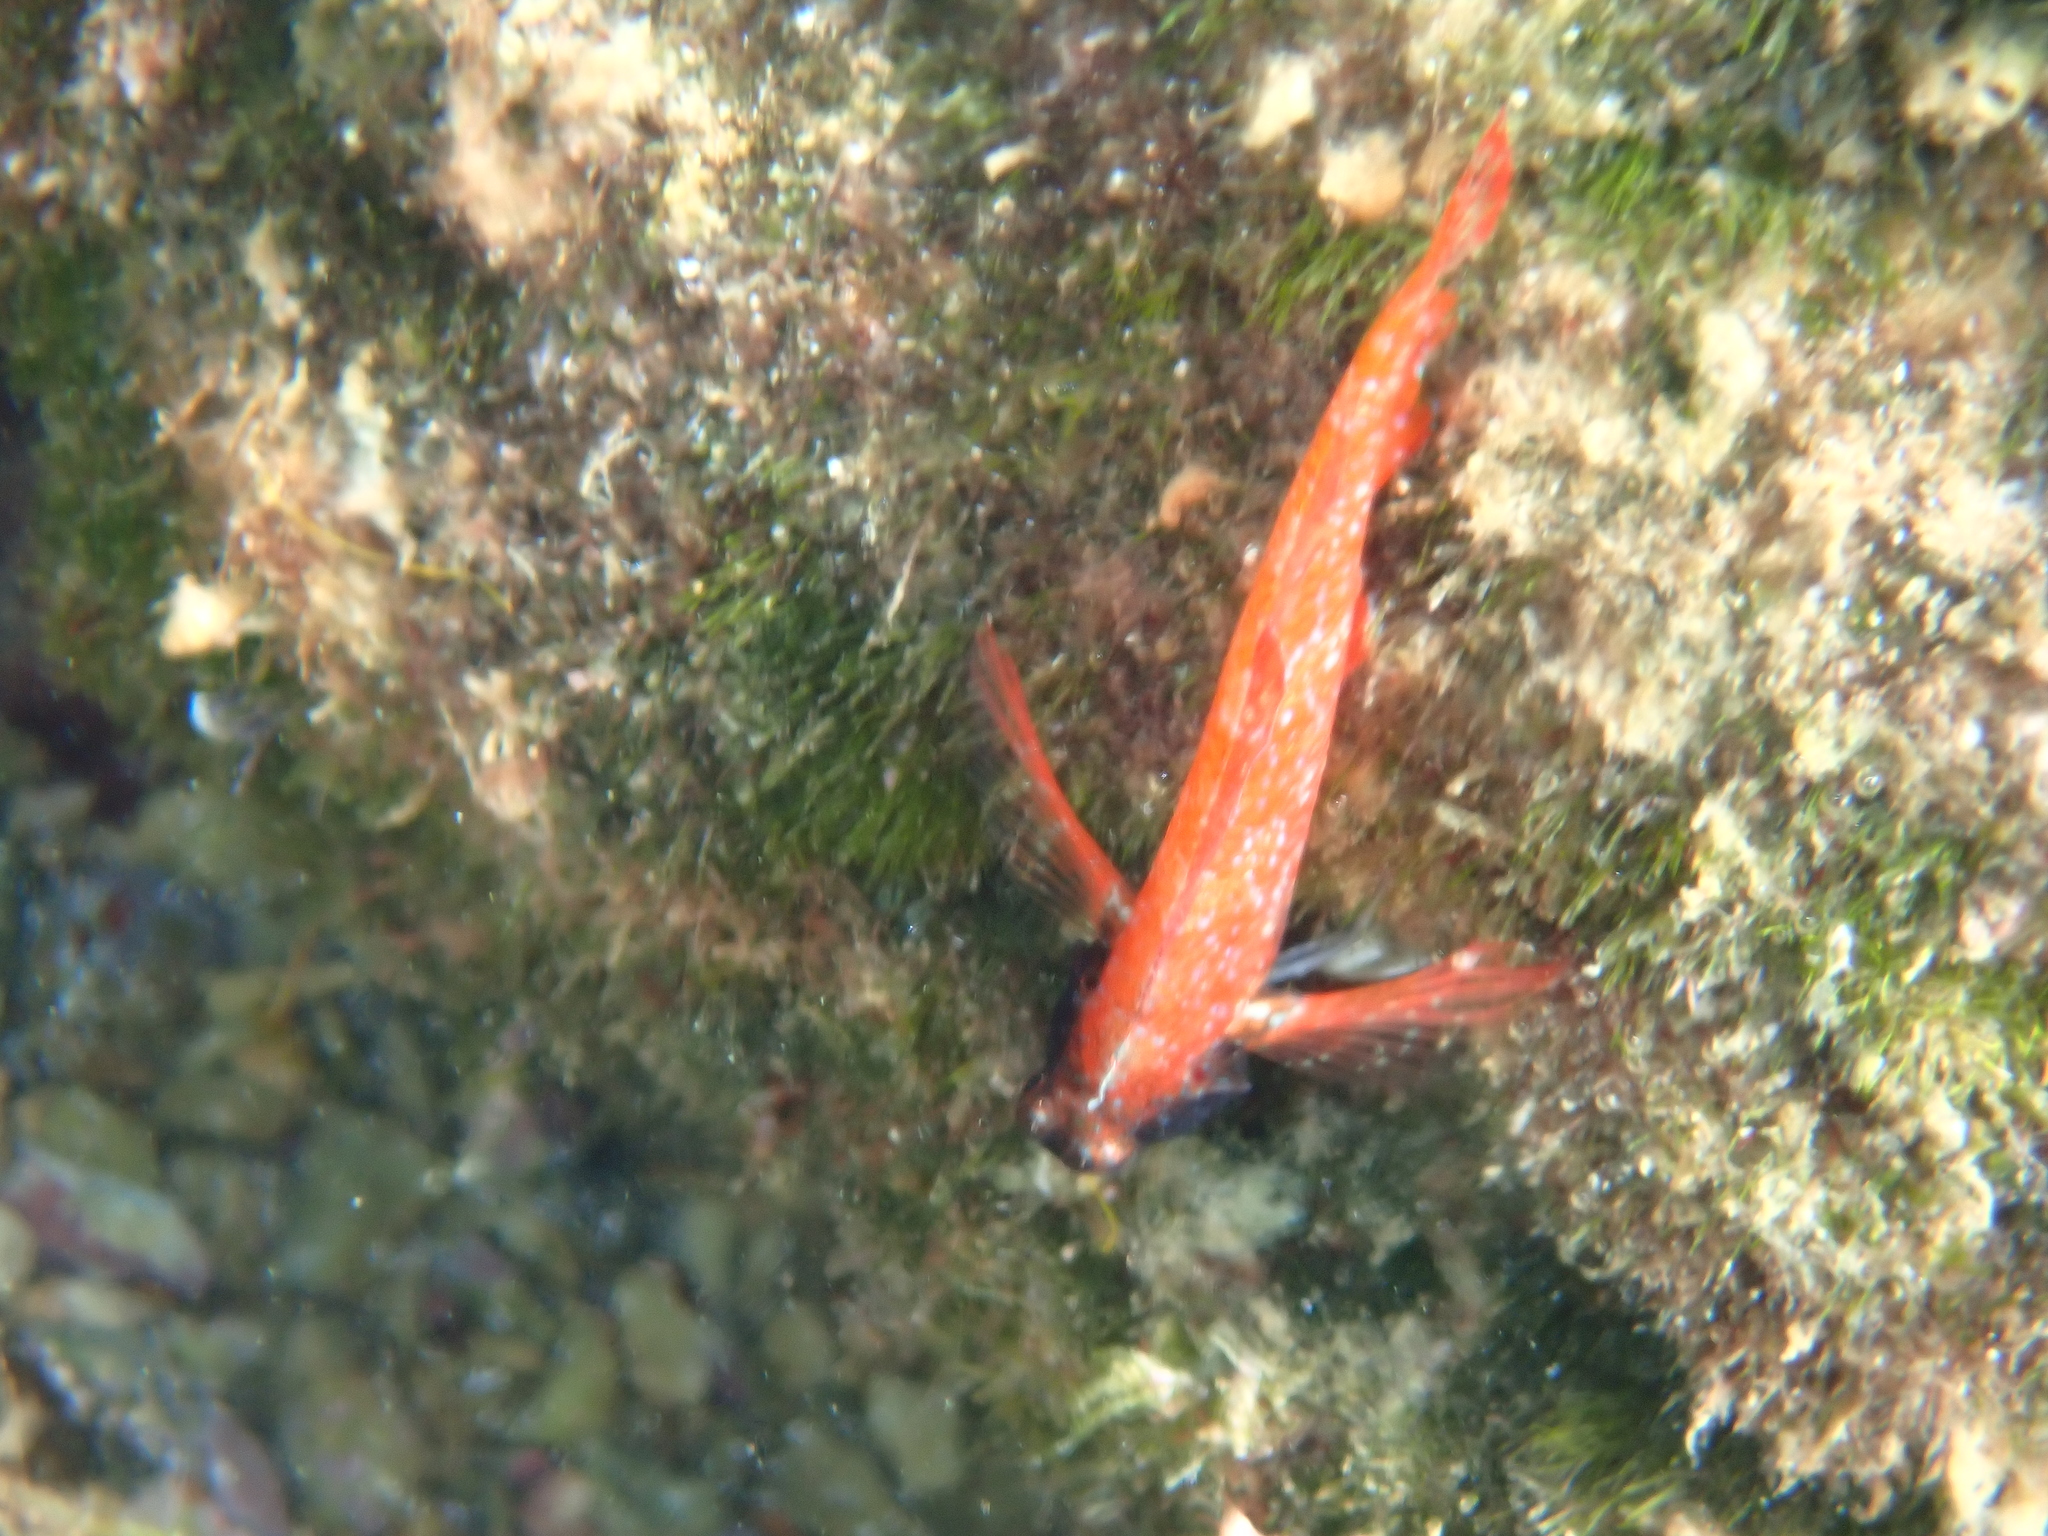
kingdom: Animalia
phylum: Chordata
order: Perciformes
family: Tripterygiidae
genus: Tripterygion
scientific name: Tripterygion tripteronotum
